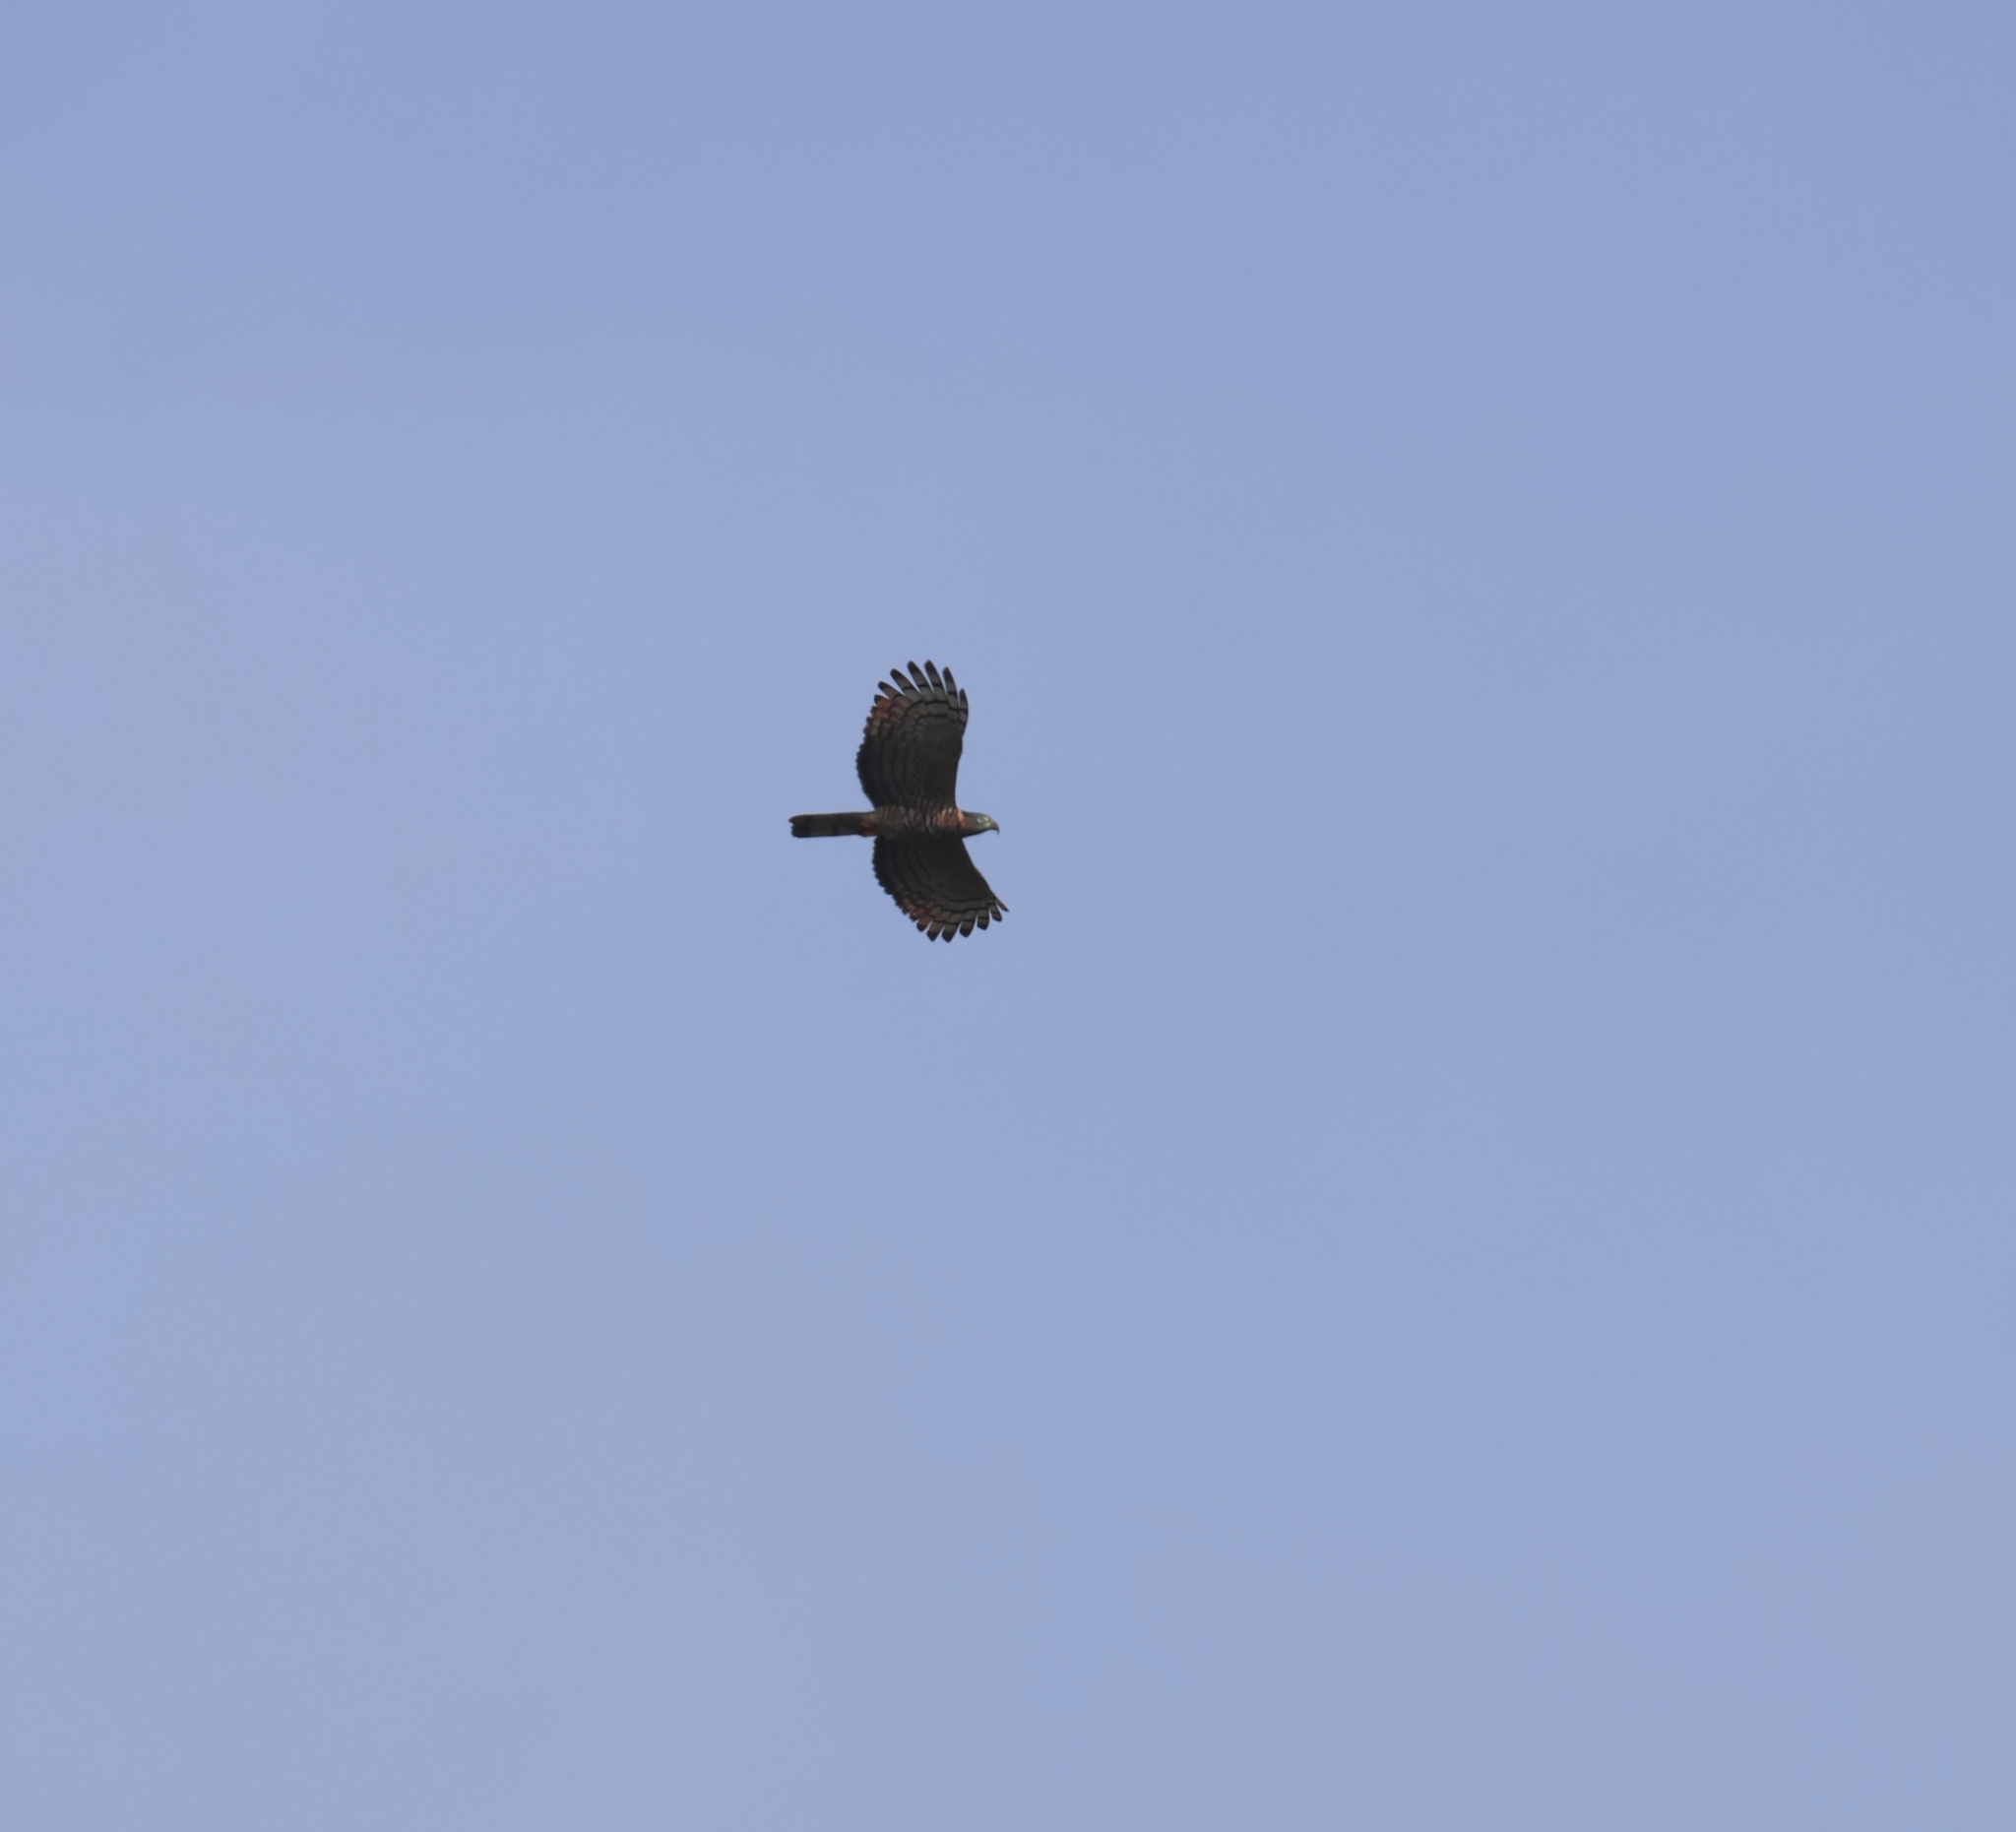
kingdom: Animalia
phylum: Chordata
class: Aves
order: Accipitriformes
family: Accipitridae
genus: Chondrohierax
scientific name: Chondrohierax uncinatus
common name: Hook-billed kite
